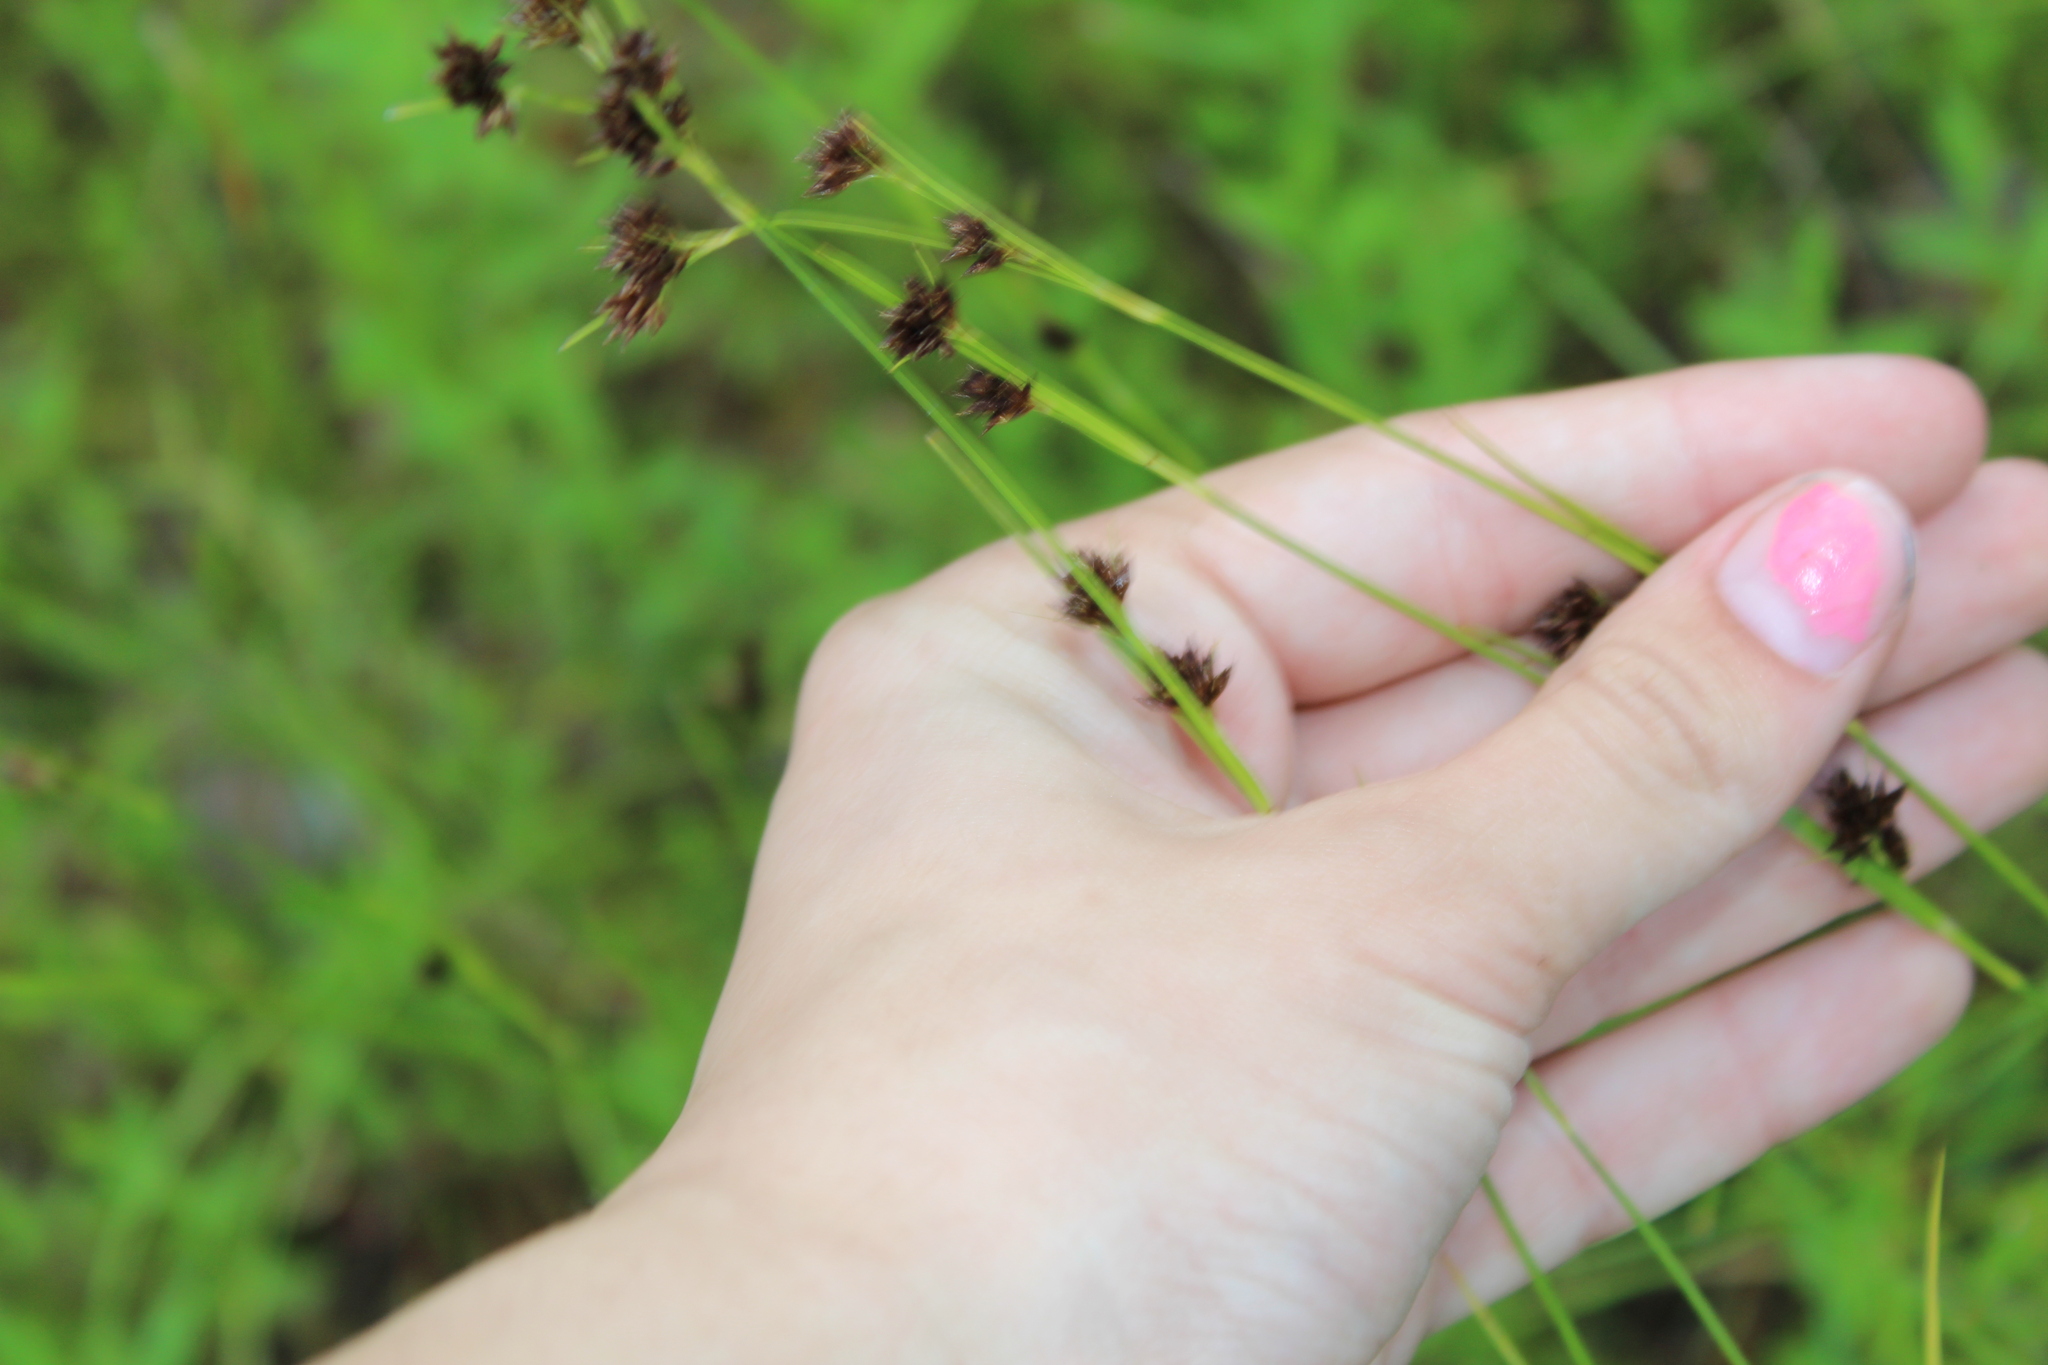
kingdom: Plantae
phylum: Tracheophyta
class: Liliopsida
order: Poales
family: Cyperaceae
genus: Rhynchospora
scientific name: Rhynchospora capitellata
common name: Brownish beaksedge
